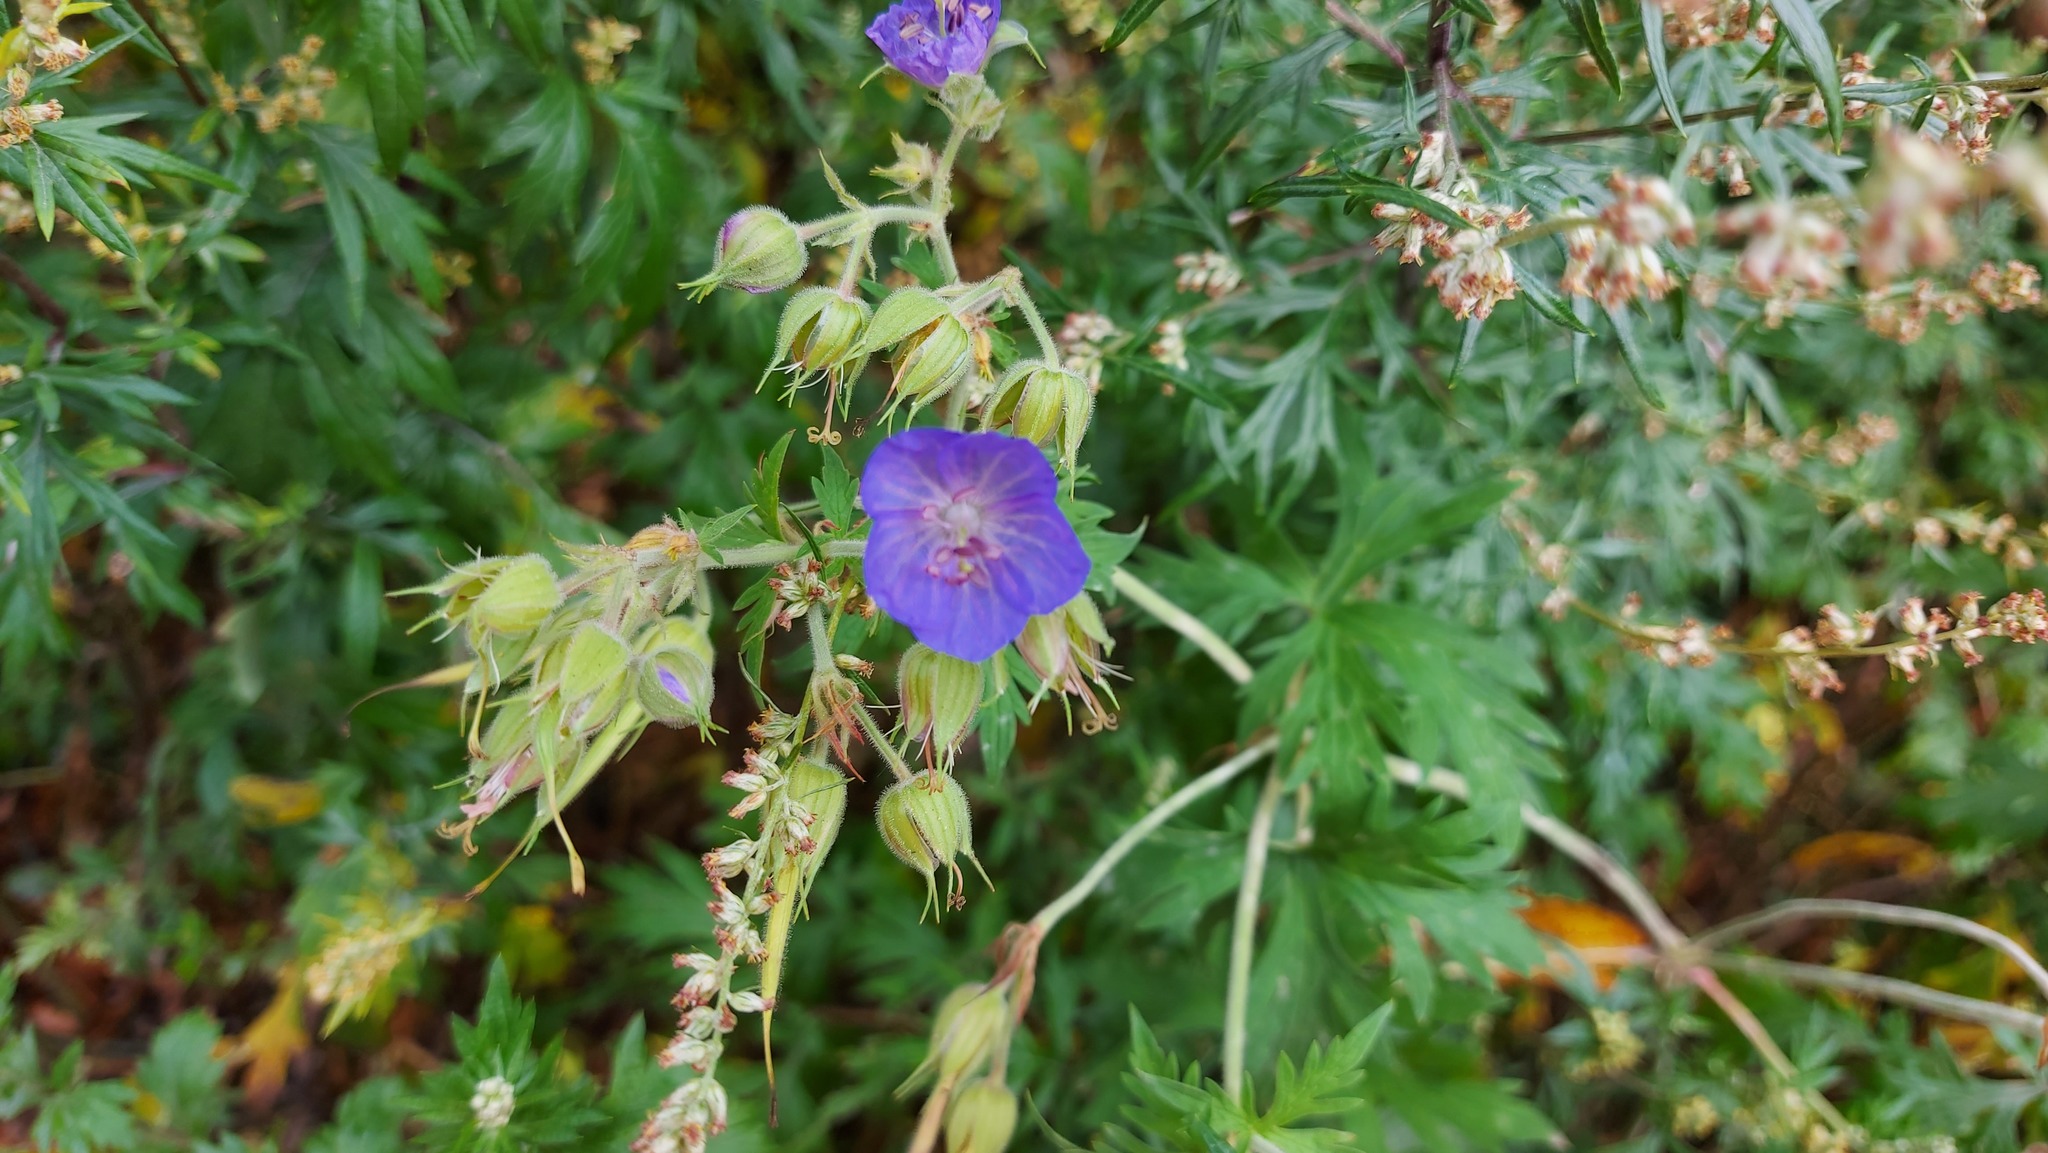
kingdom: Plantae
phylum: Tracheophyta
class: Magnoliopsida
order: Geraniales
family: Geraniaceae
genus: Geranium
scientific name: Geranium pratense
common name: Meadow crane's-bill
